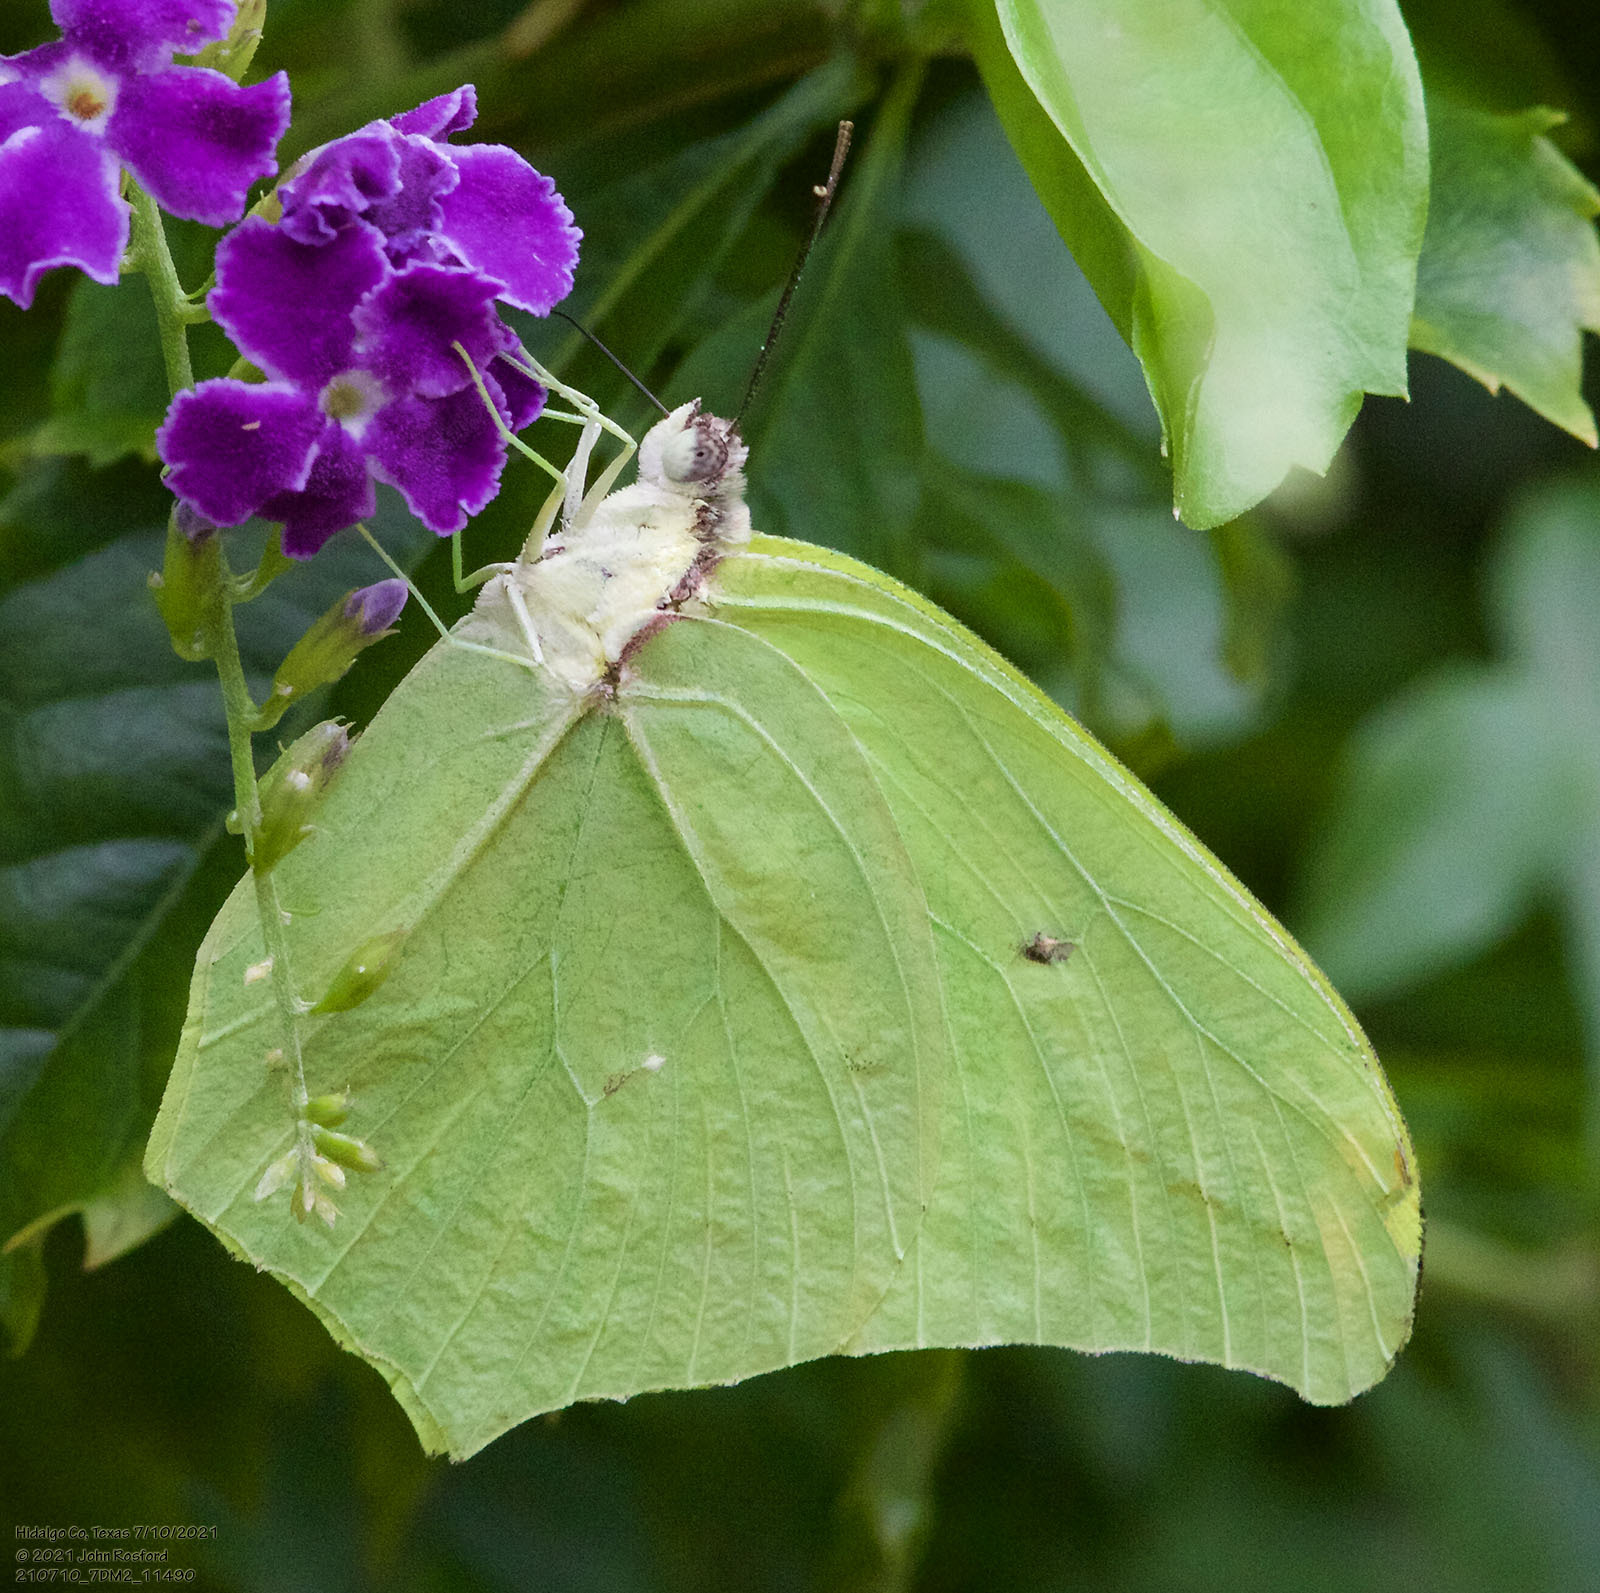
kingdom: Animalia
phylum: Arthropoda
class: Insecta
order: Lepidoptera
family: Pieridae
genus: Anteos
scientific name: Anteos maerula
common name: Angled sulphur
